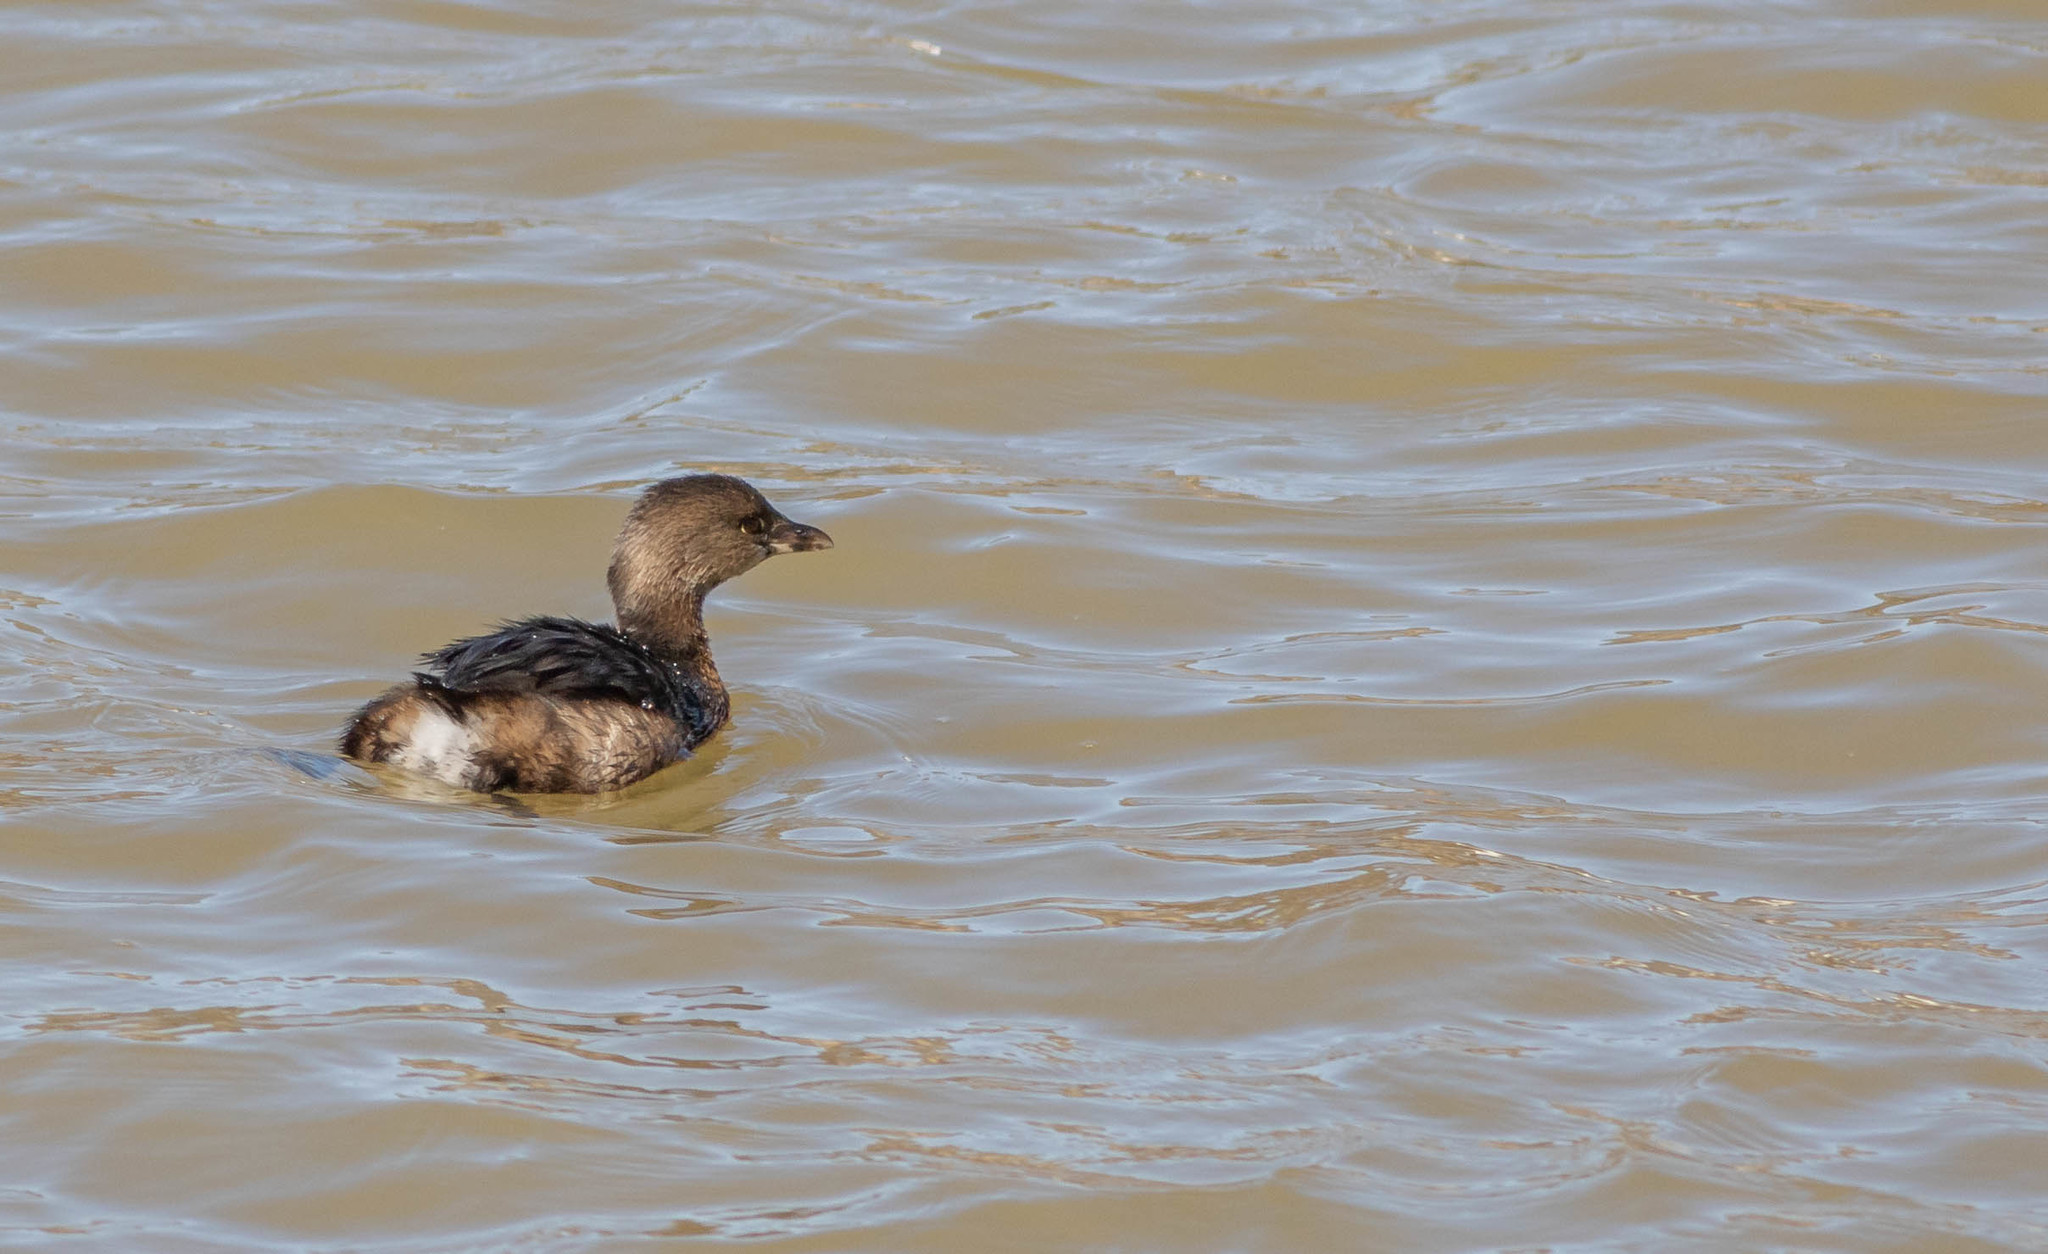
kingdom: Animalia
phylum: Chordata
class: Aves
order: Podicipediformes
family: Podicipedidae
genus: Podilymbus
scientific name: Podilymbus podiceps
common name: Pied-billed grebe
